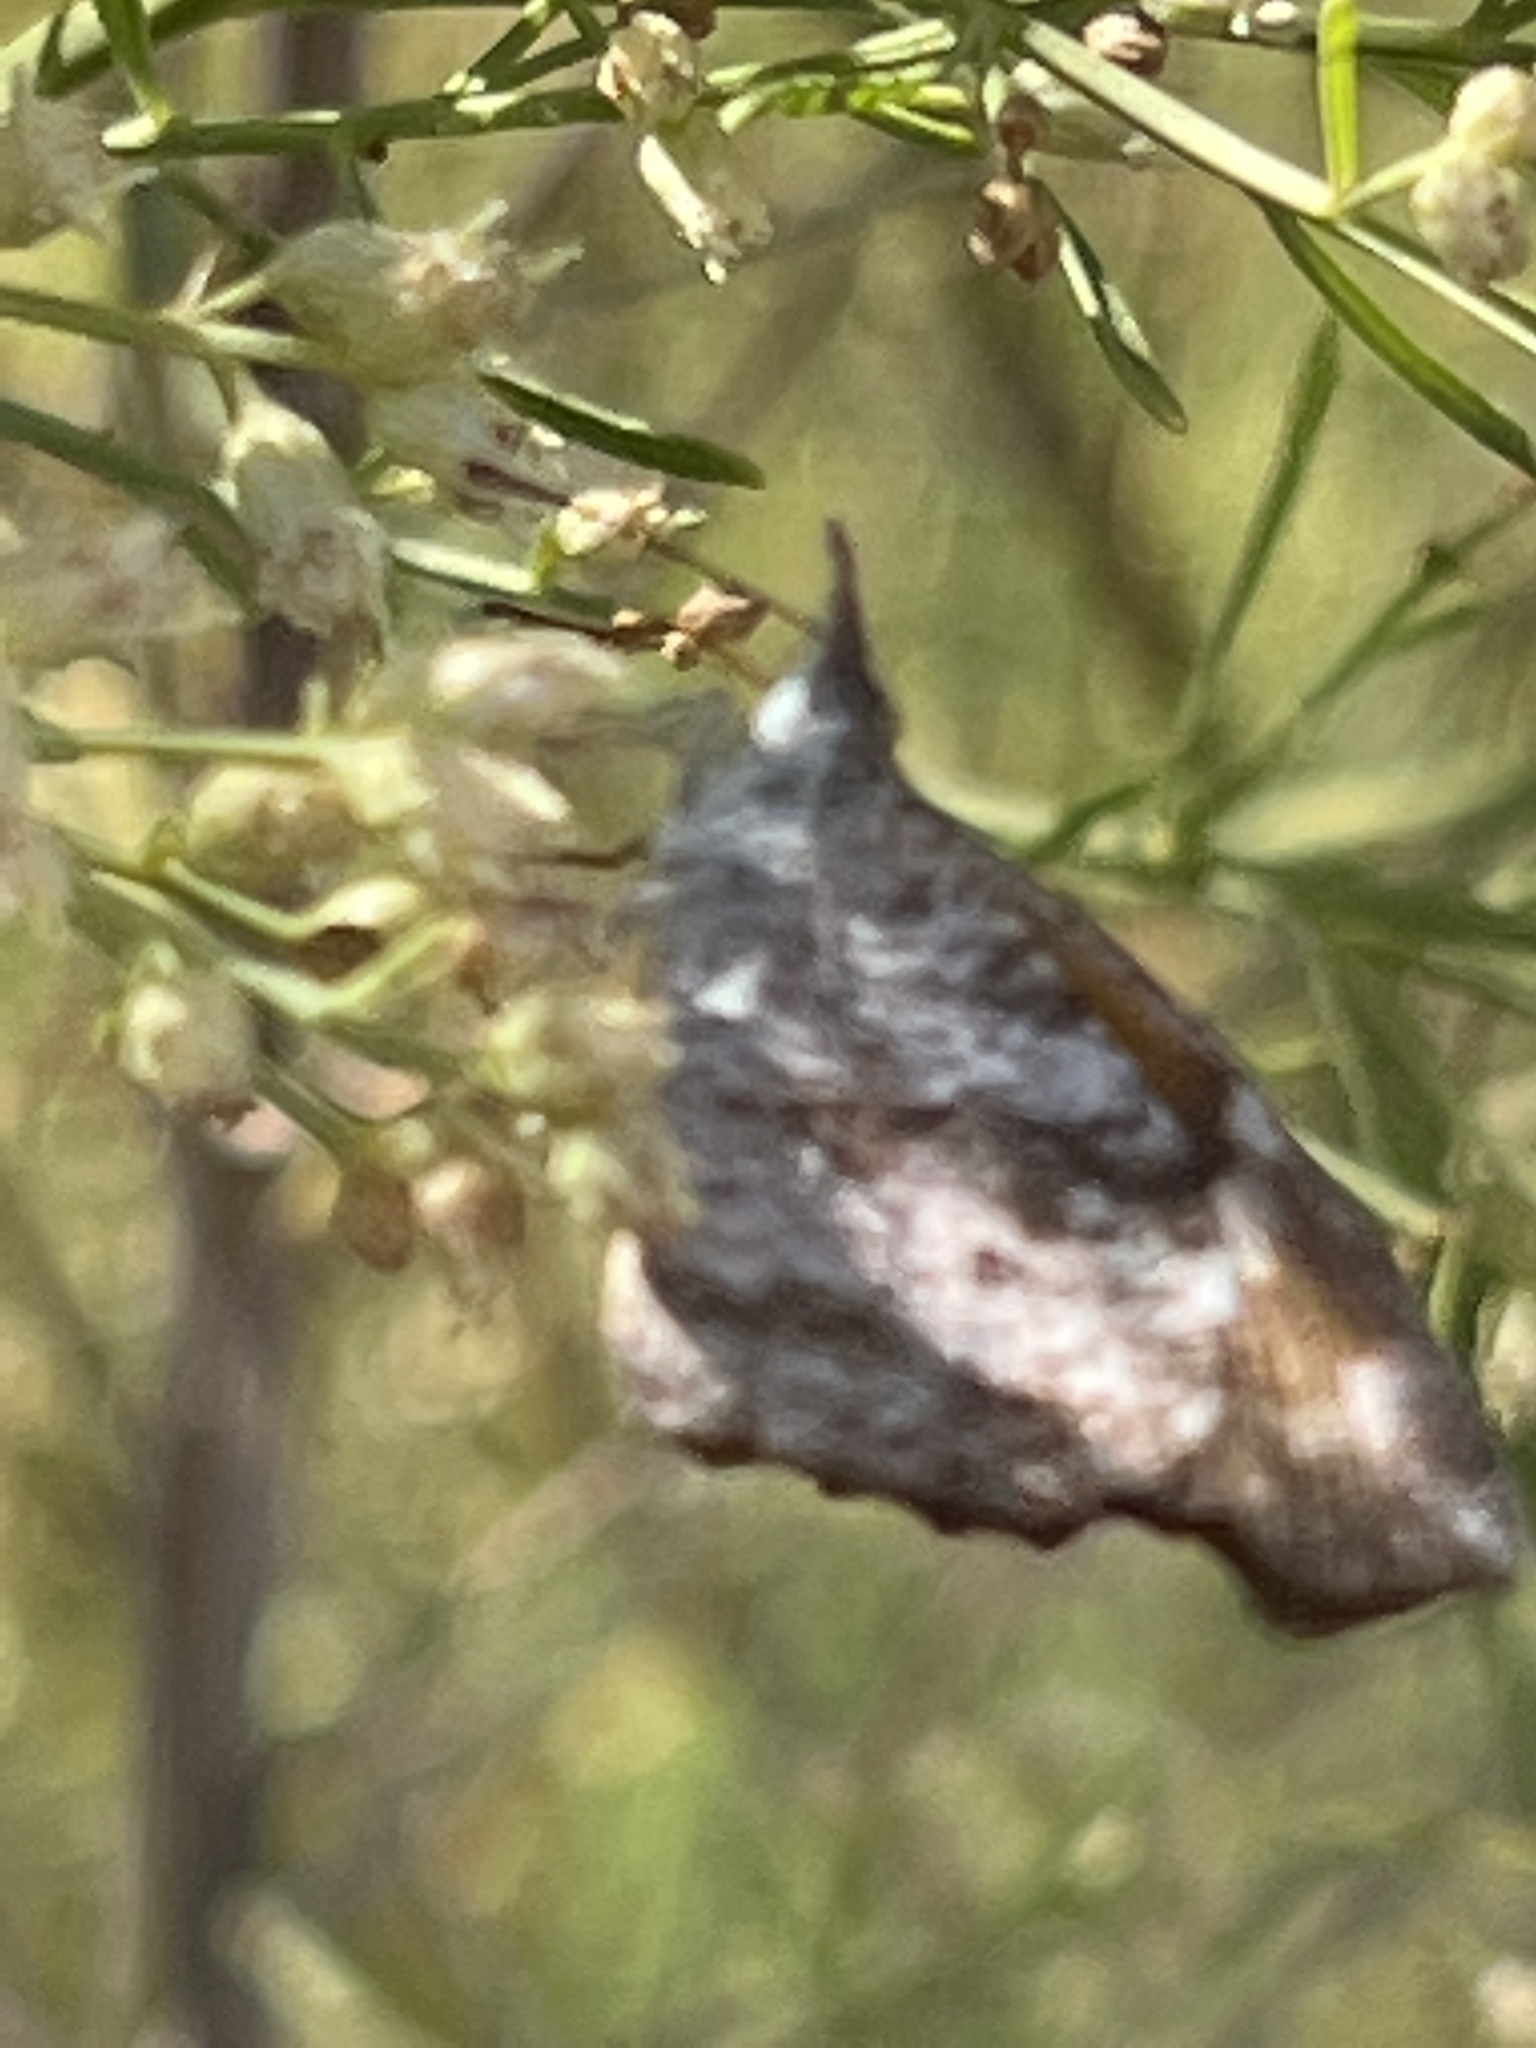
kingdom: Animalia
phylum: Arthropoda
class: Insecta
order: Lepidoptera
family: Nymphalidae
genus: Libytheana
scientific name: Libytheana carinenta
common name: American snout
